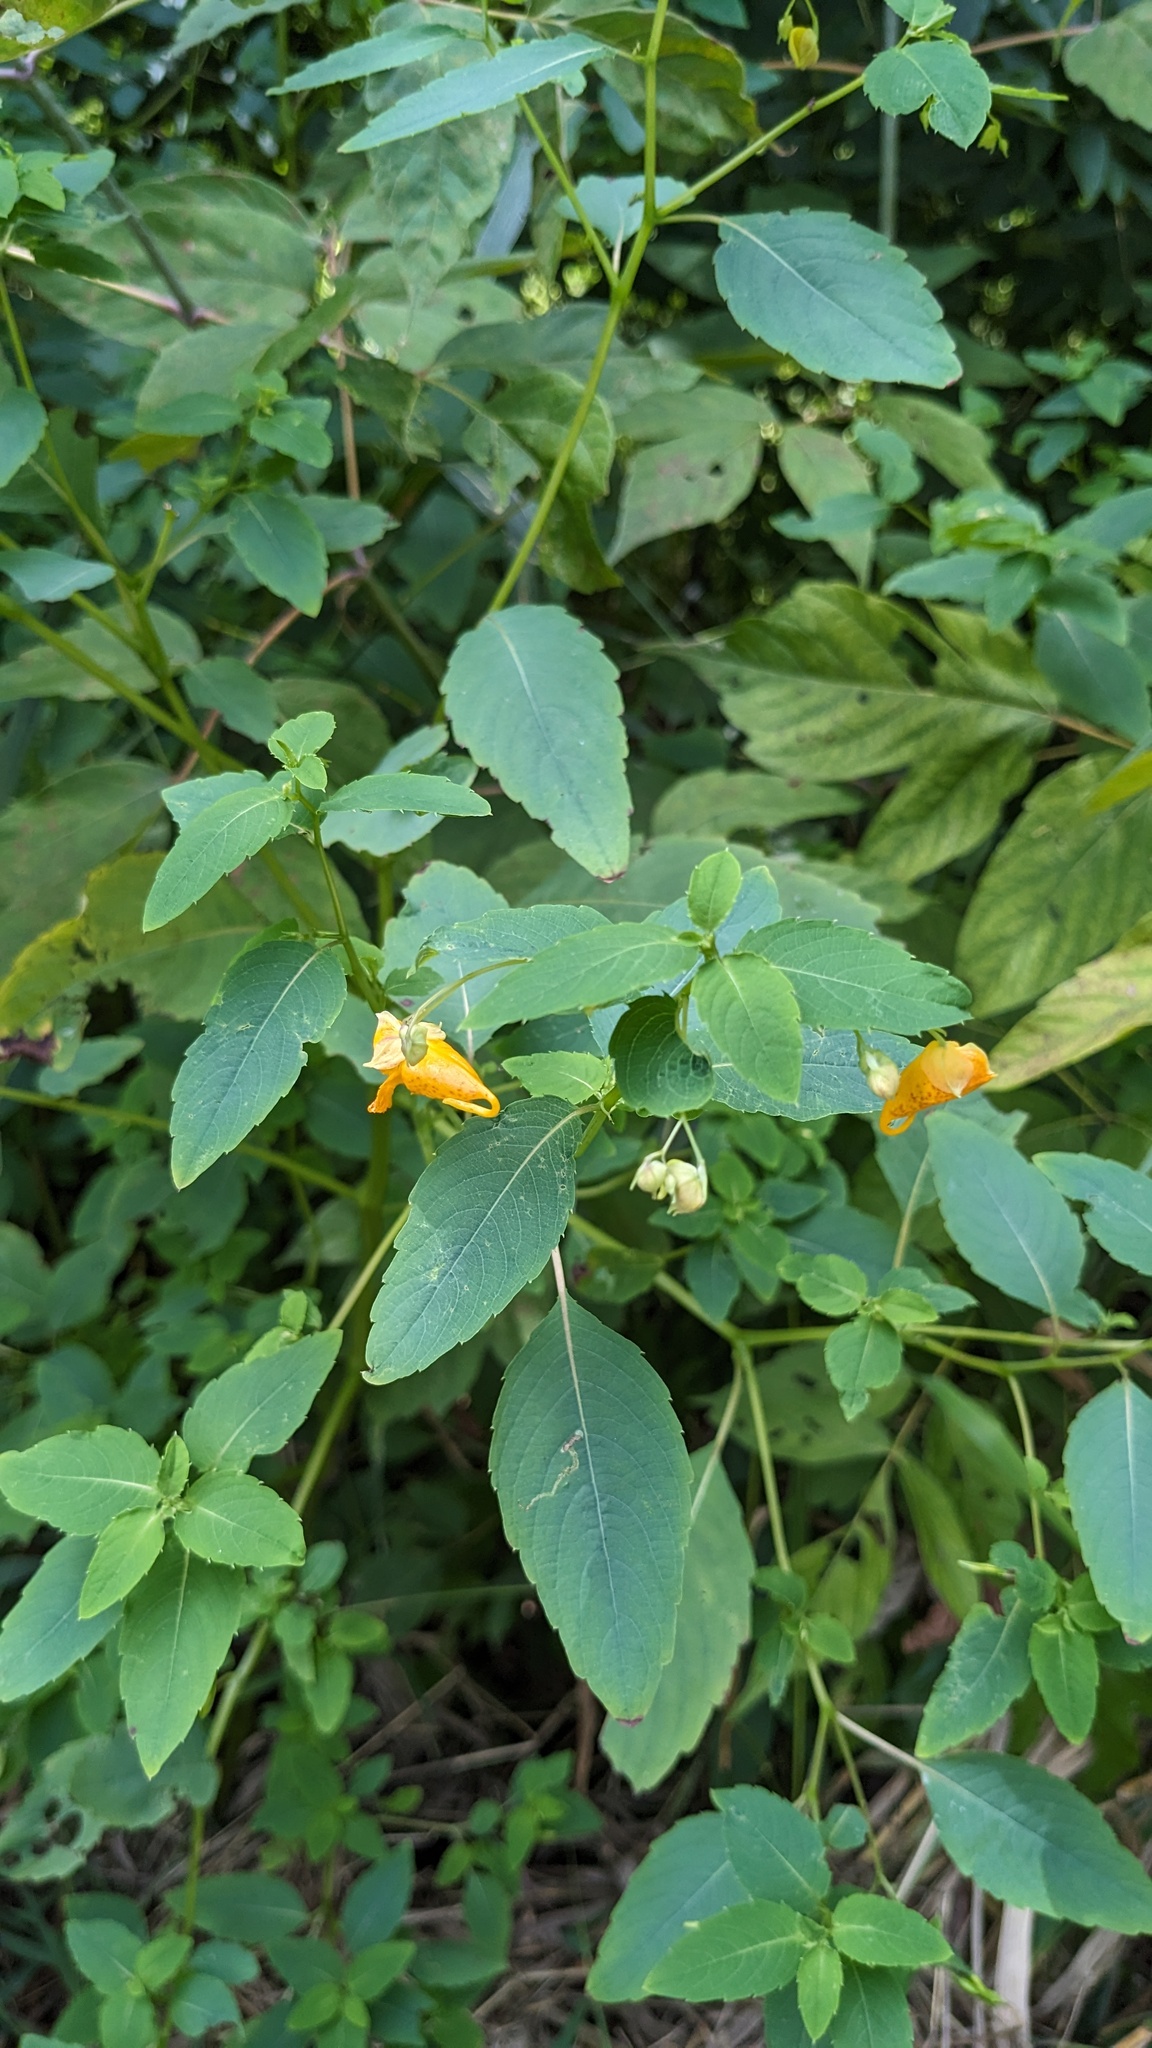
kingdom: Plantae
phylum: Tracheophyta
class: Magnoliopsida
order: Ericales
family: Balsaminaceae
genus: Impatiens
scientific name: Impatiens capensis
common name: Orange balsam
